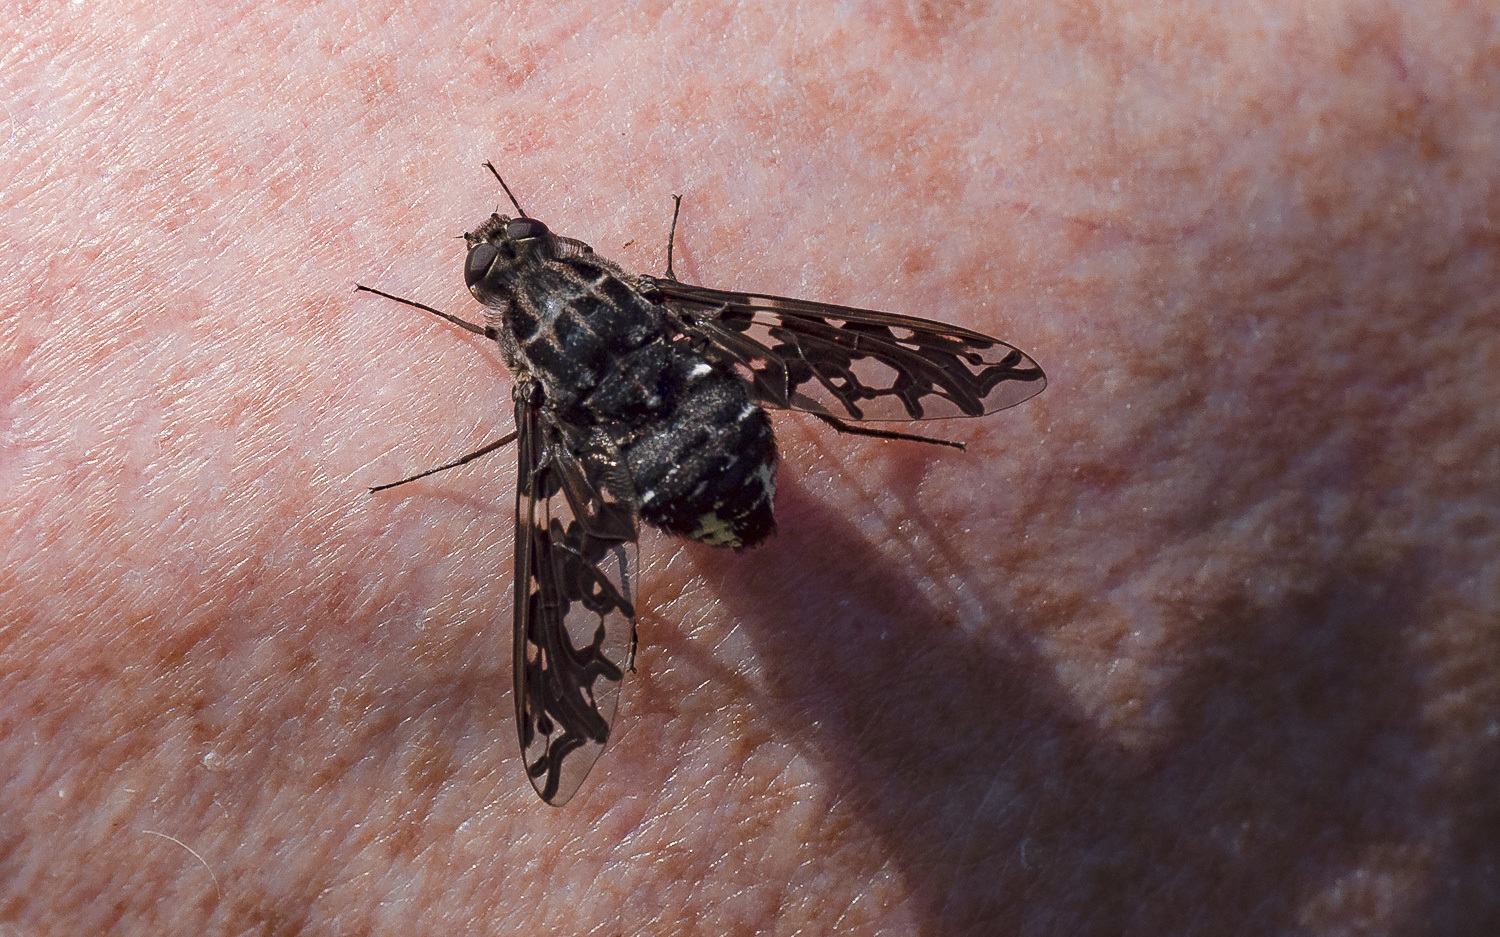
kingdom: Animalia
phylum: Arthropoda
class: Insecta
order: Diptera
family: Bombyliidae
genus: Xenox
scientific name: Xenox tigrinus
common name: Tiger bee fly
